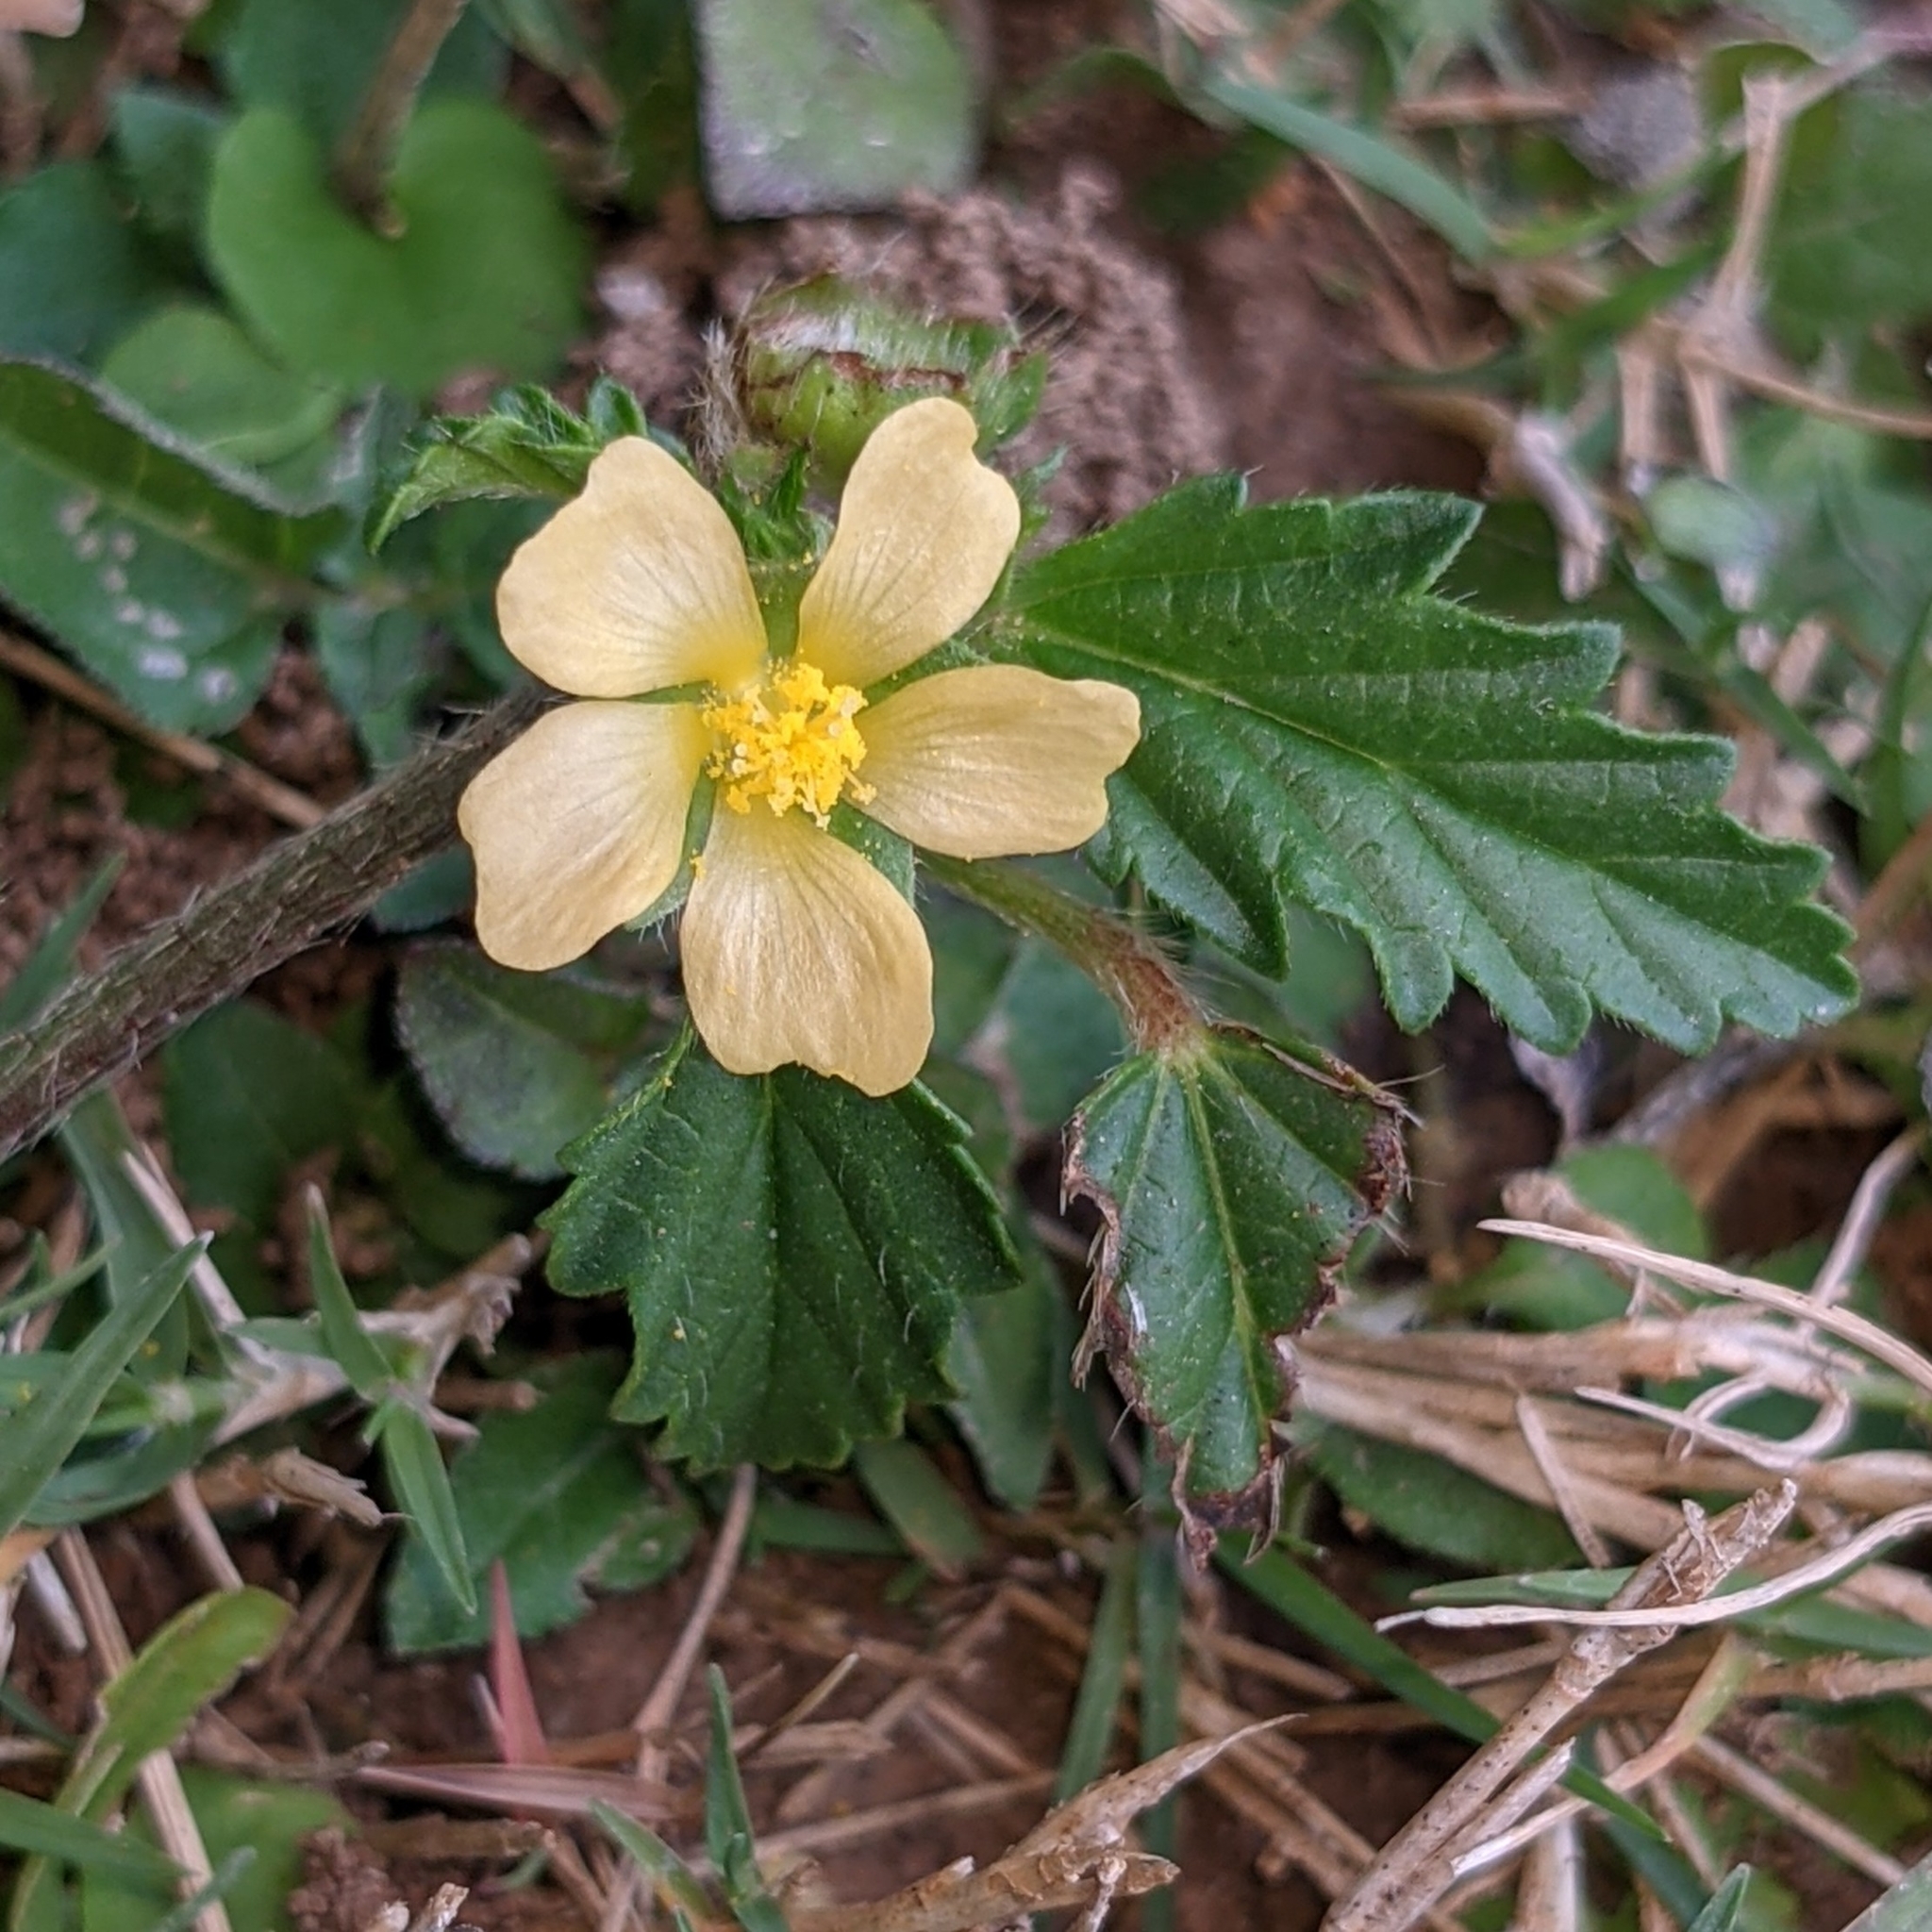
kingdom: Plantae
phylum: Tracheophyta
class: Magnoliopsida
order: Malvales
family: Malvaceae
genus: Malvastrum
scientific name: Malvastrum coromandelianum
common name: Threelobe false mallow
